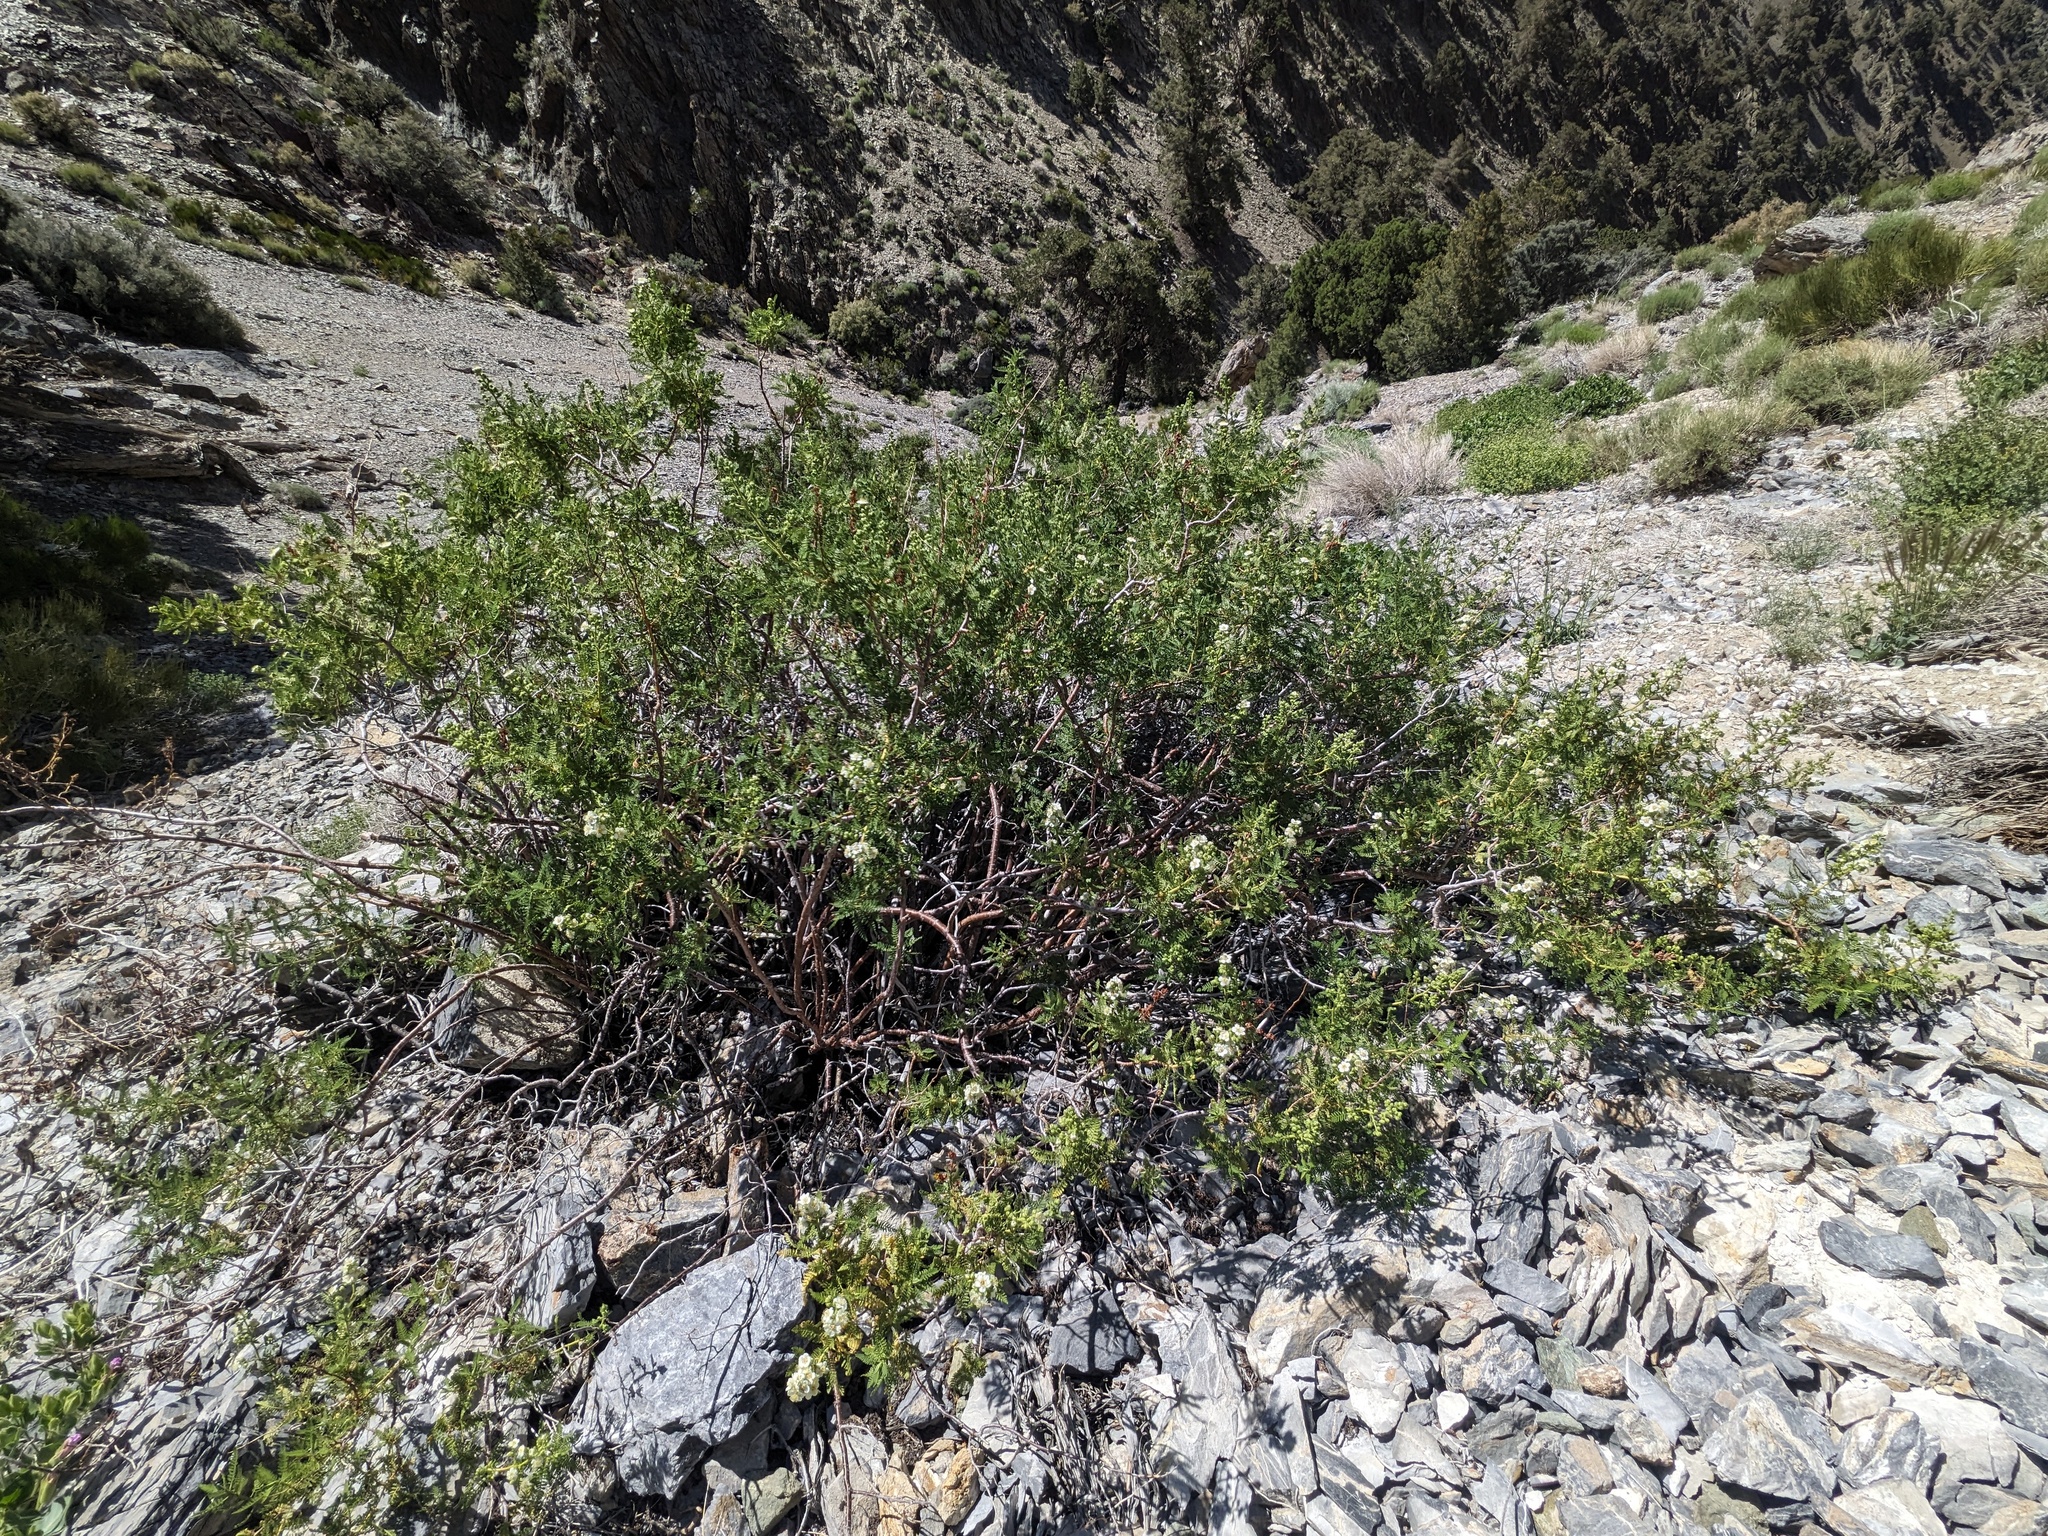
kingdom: Plantae
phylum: Tracheophyta
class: Magnoliopsida
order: Rosales
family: Rosaceae
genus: Chamaebatiaria
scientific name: Chamaebatiaria millefolium
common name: Fernbush
